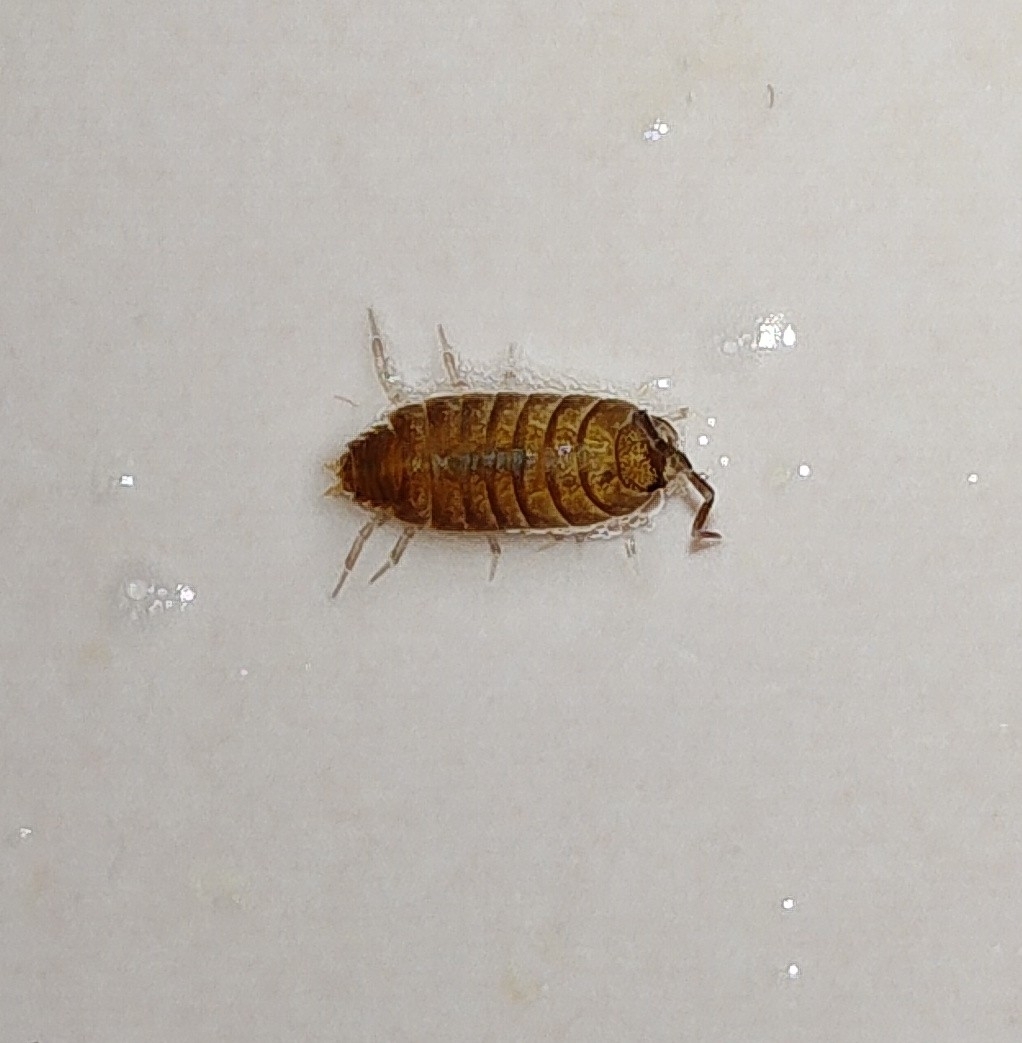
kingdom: Animalia
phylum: Arthropoda
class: Malacostraca
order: Isopoda
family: Porcellionidae
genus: Porcellionides
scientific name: Porcellionides
